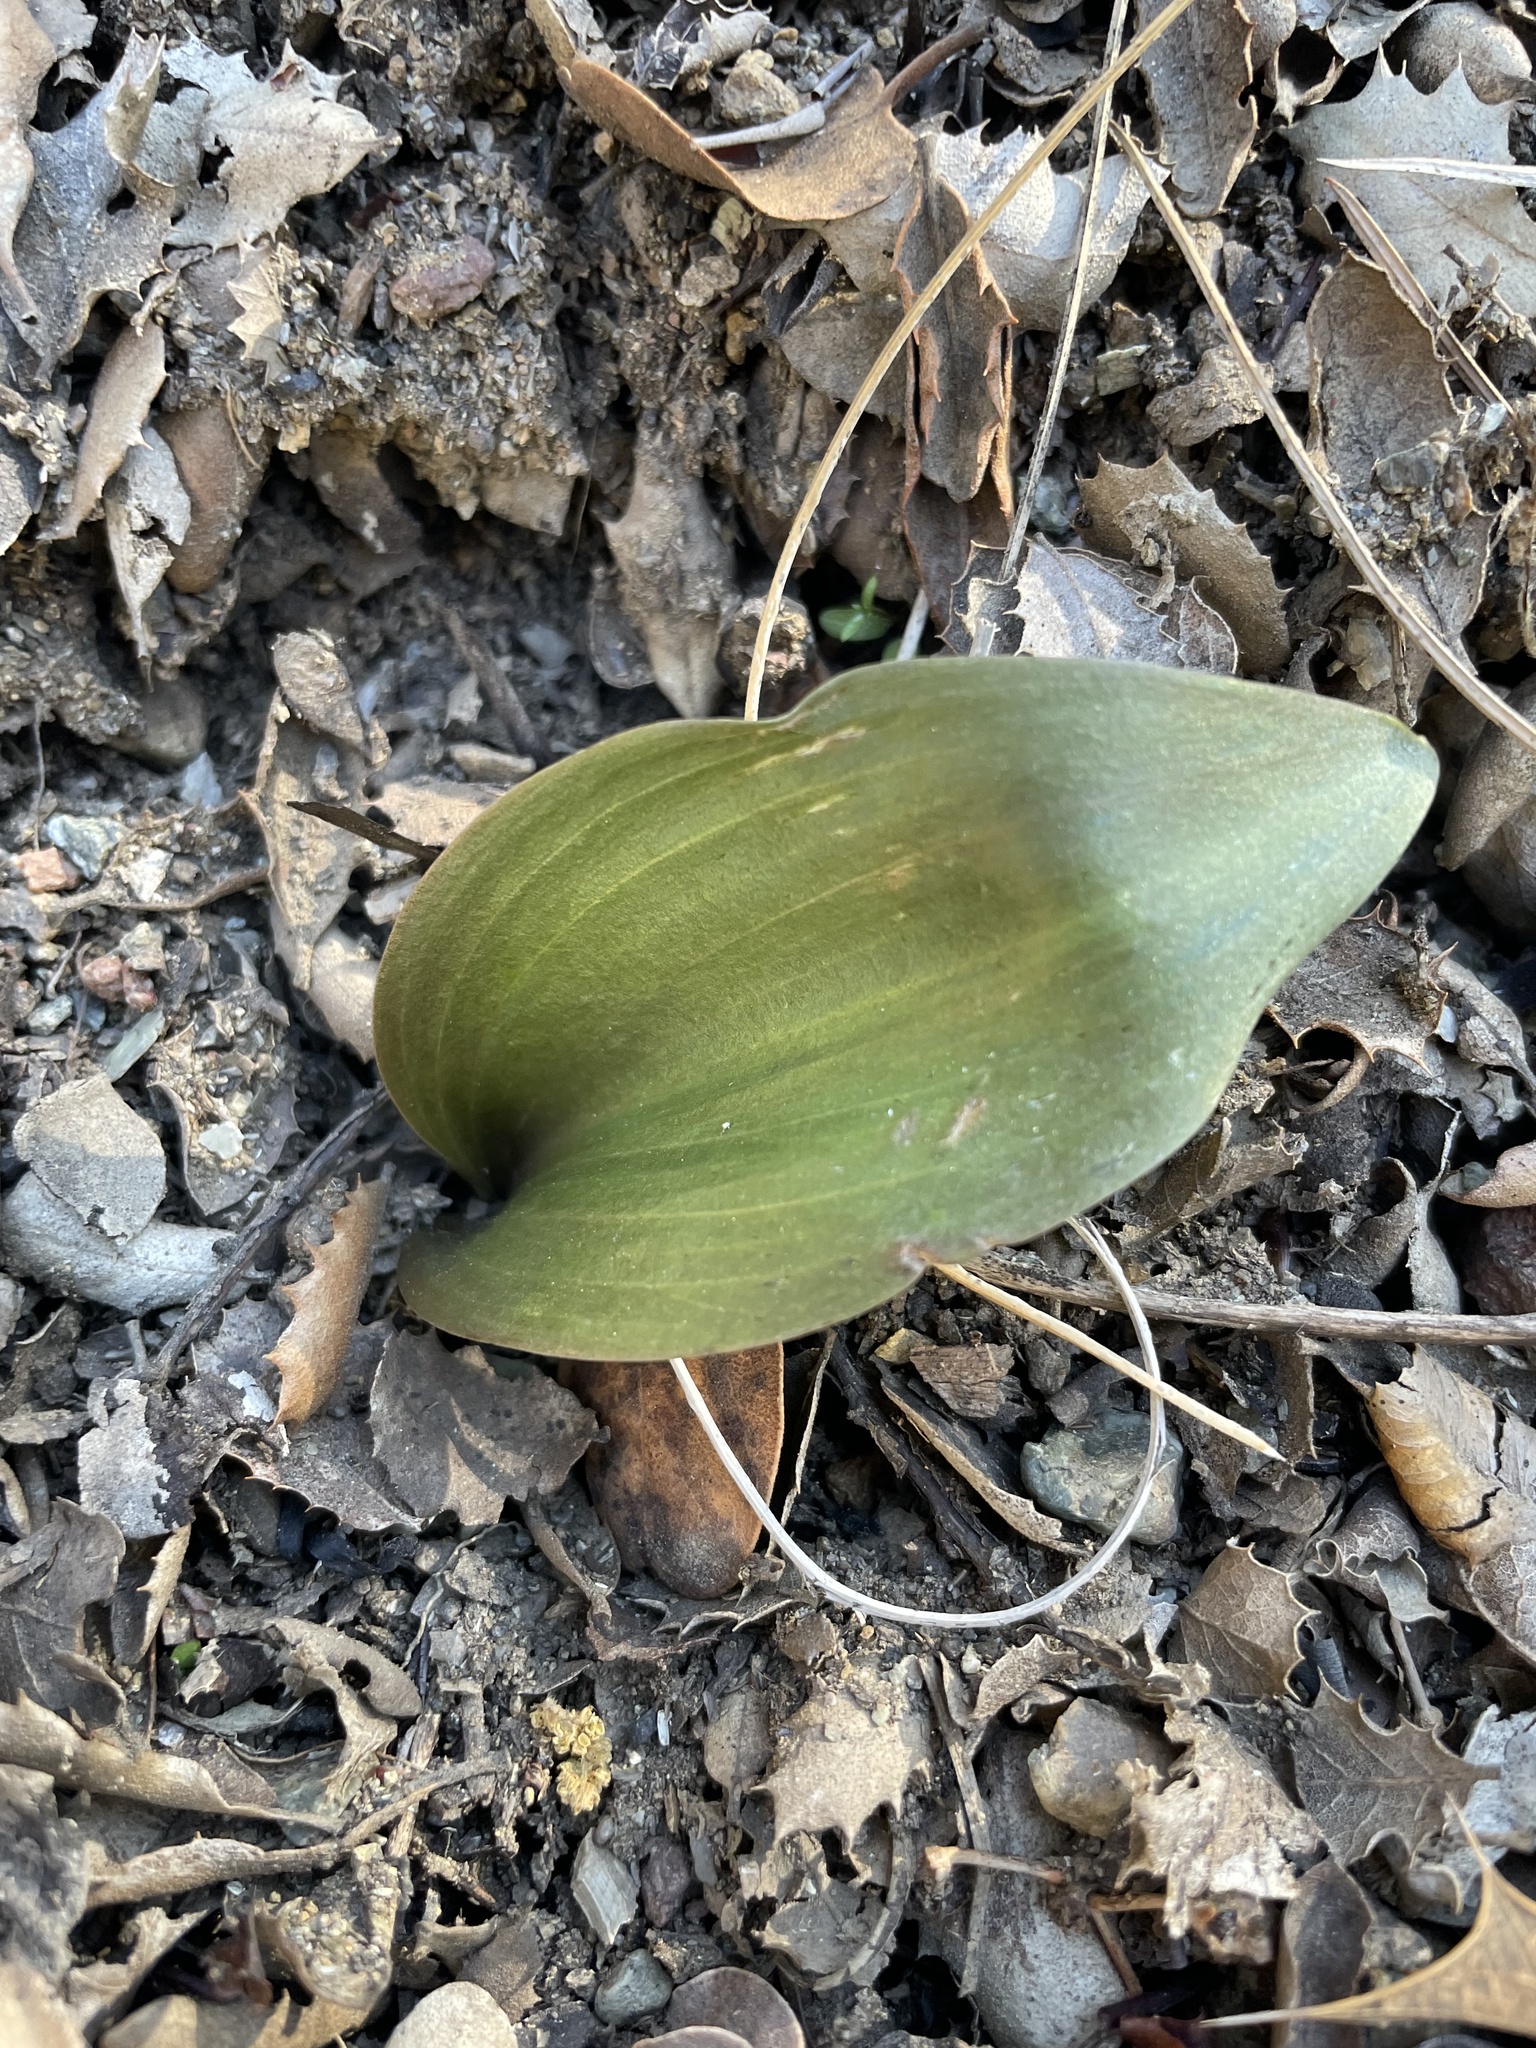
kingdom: Plantae
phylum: Tracheophyta
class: Liliopsida
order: Liliales
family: Liliaceae
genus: Fritillaria
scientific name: Fritillaria viridea
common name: San benito fritillary
